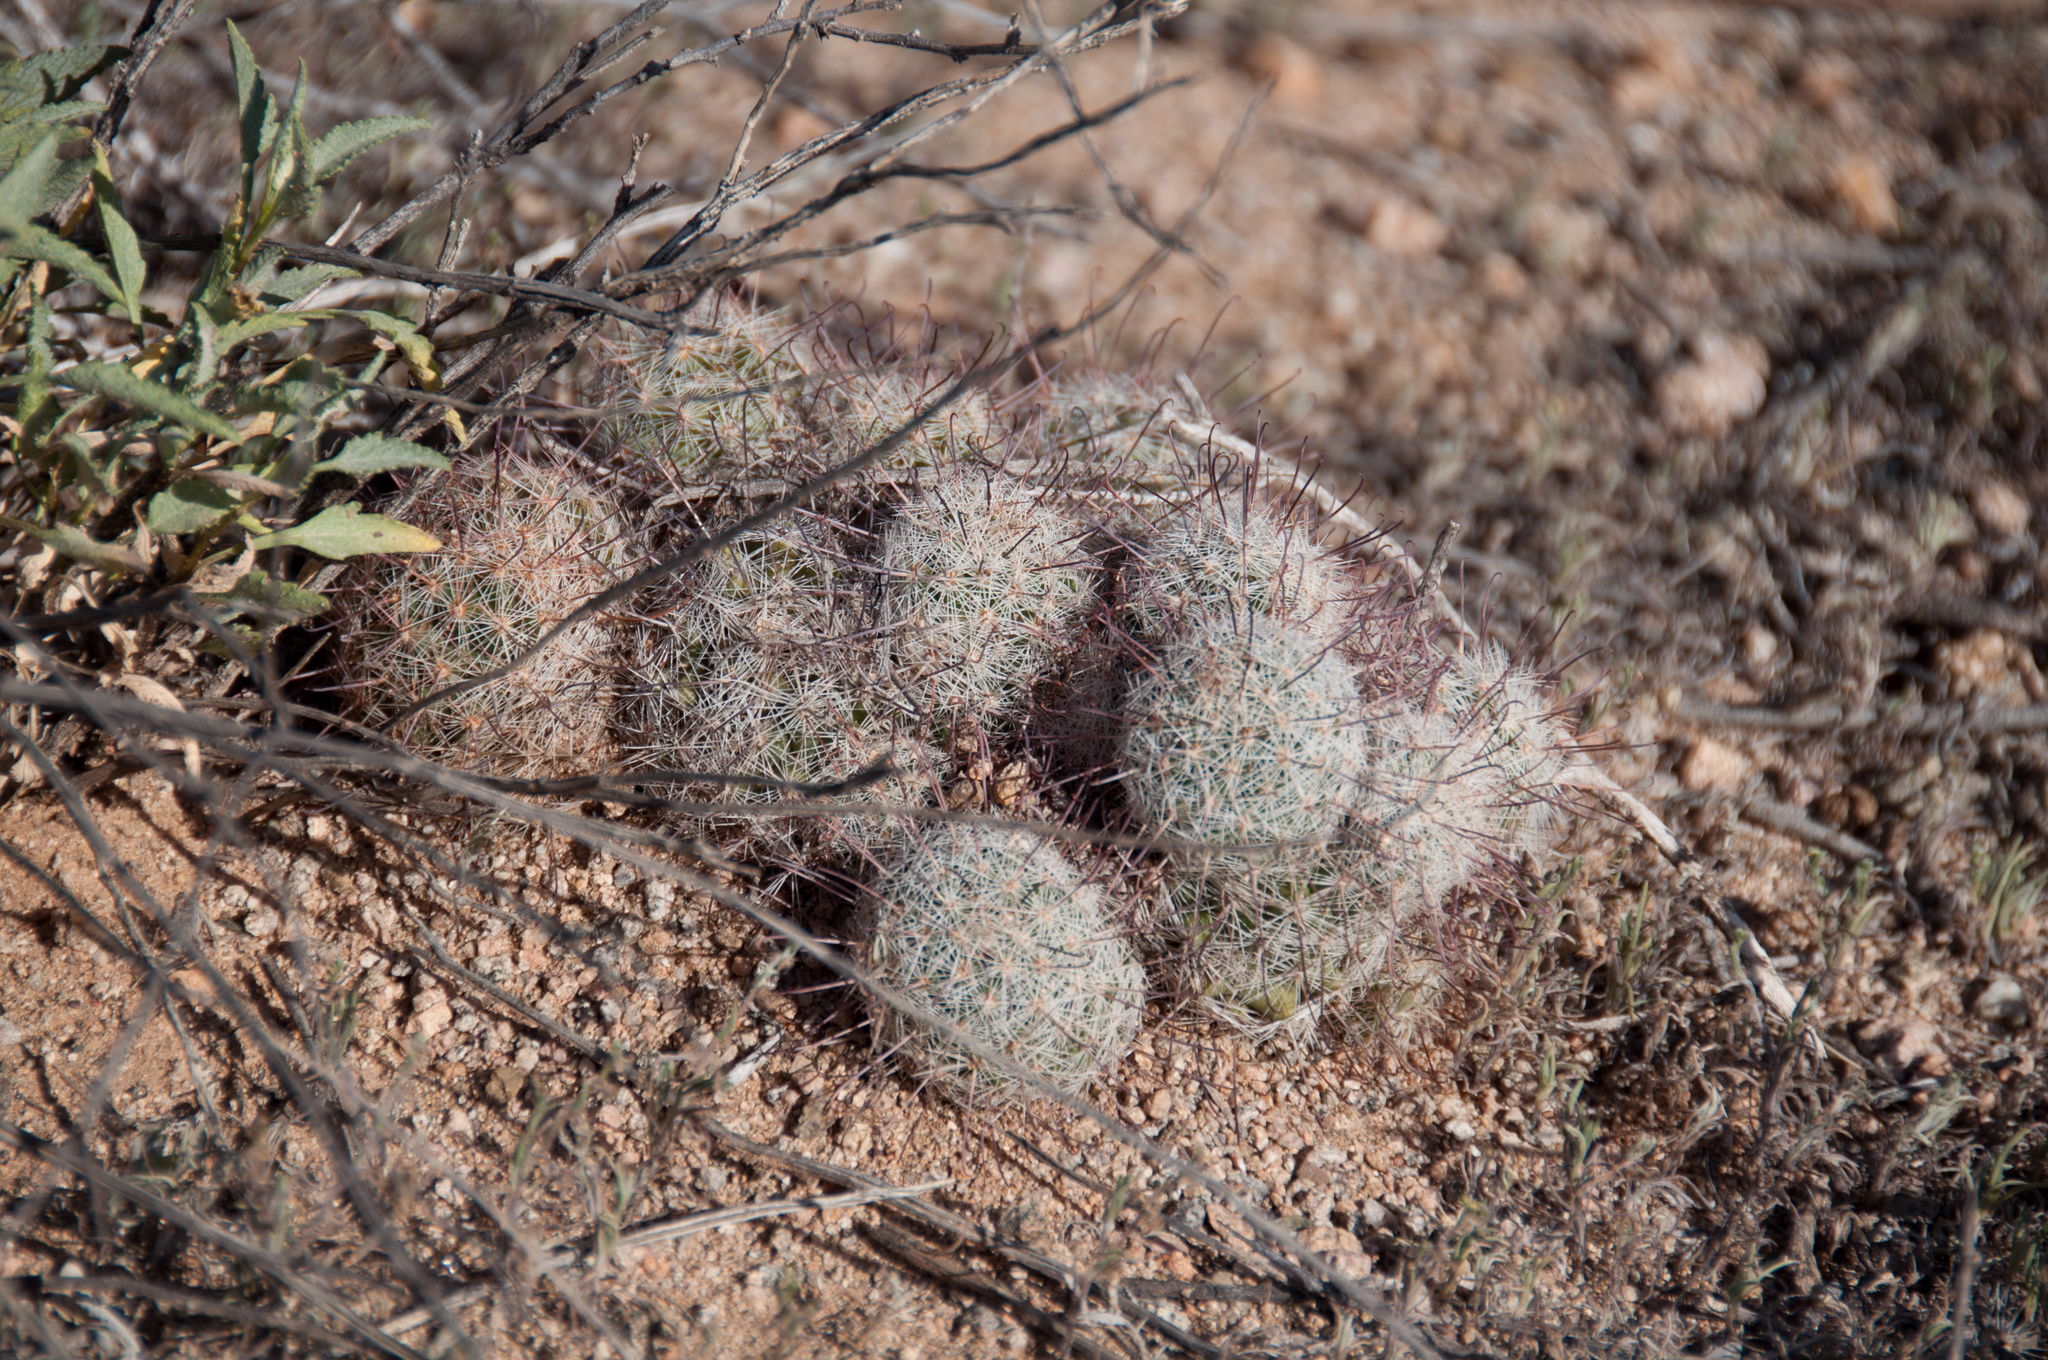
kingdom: Plantae
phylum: Tracheophyta
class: Magnoliopsida
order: Caryophyllales
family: Cactaceae
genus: Cochemiea
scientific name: Cochemiea grahamii
